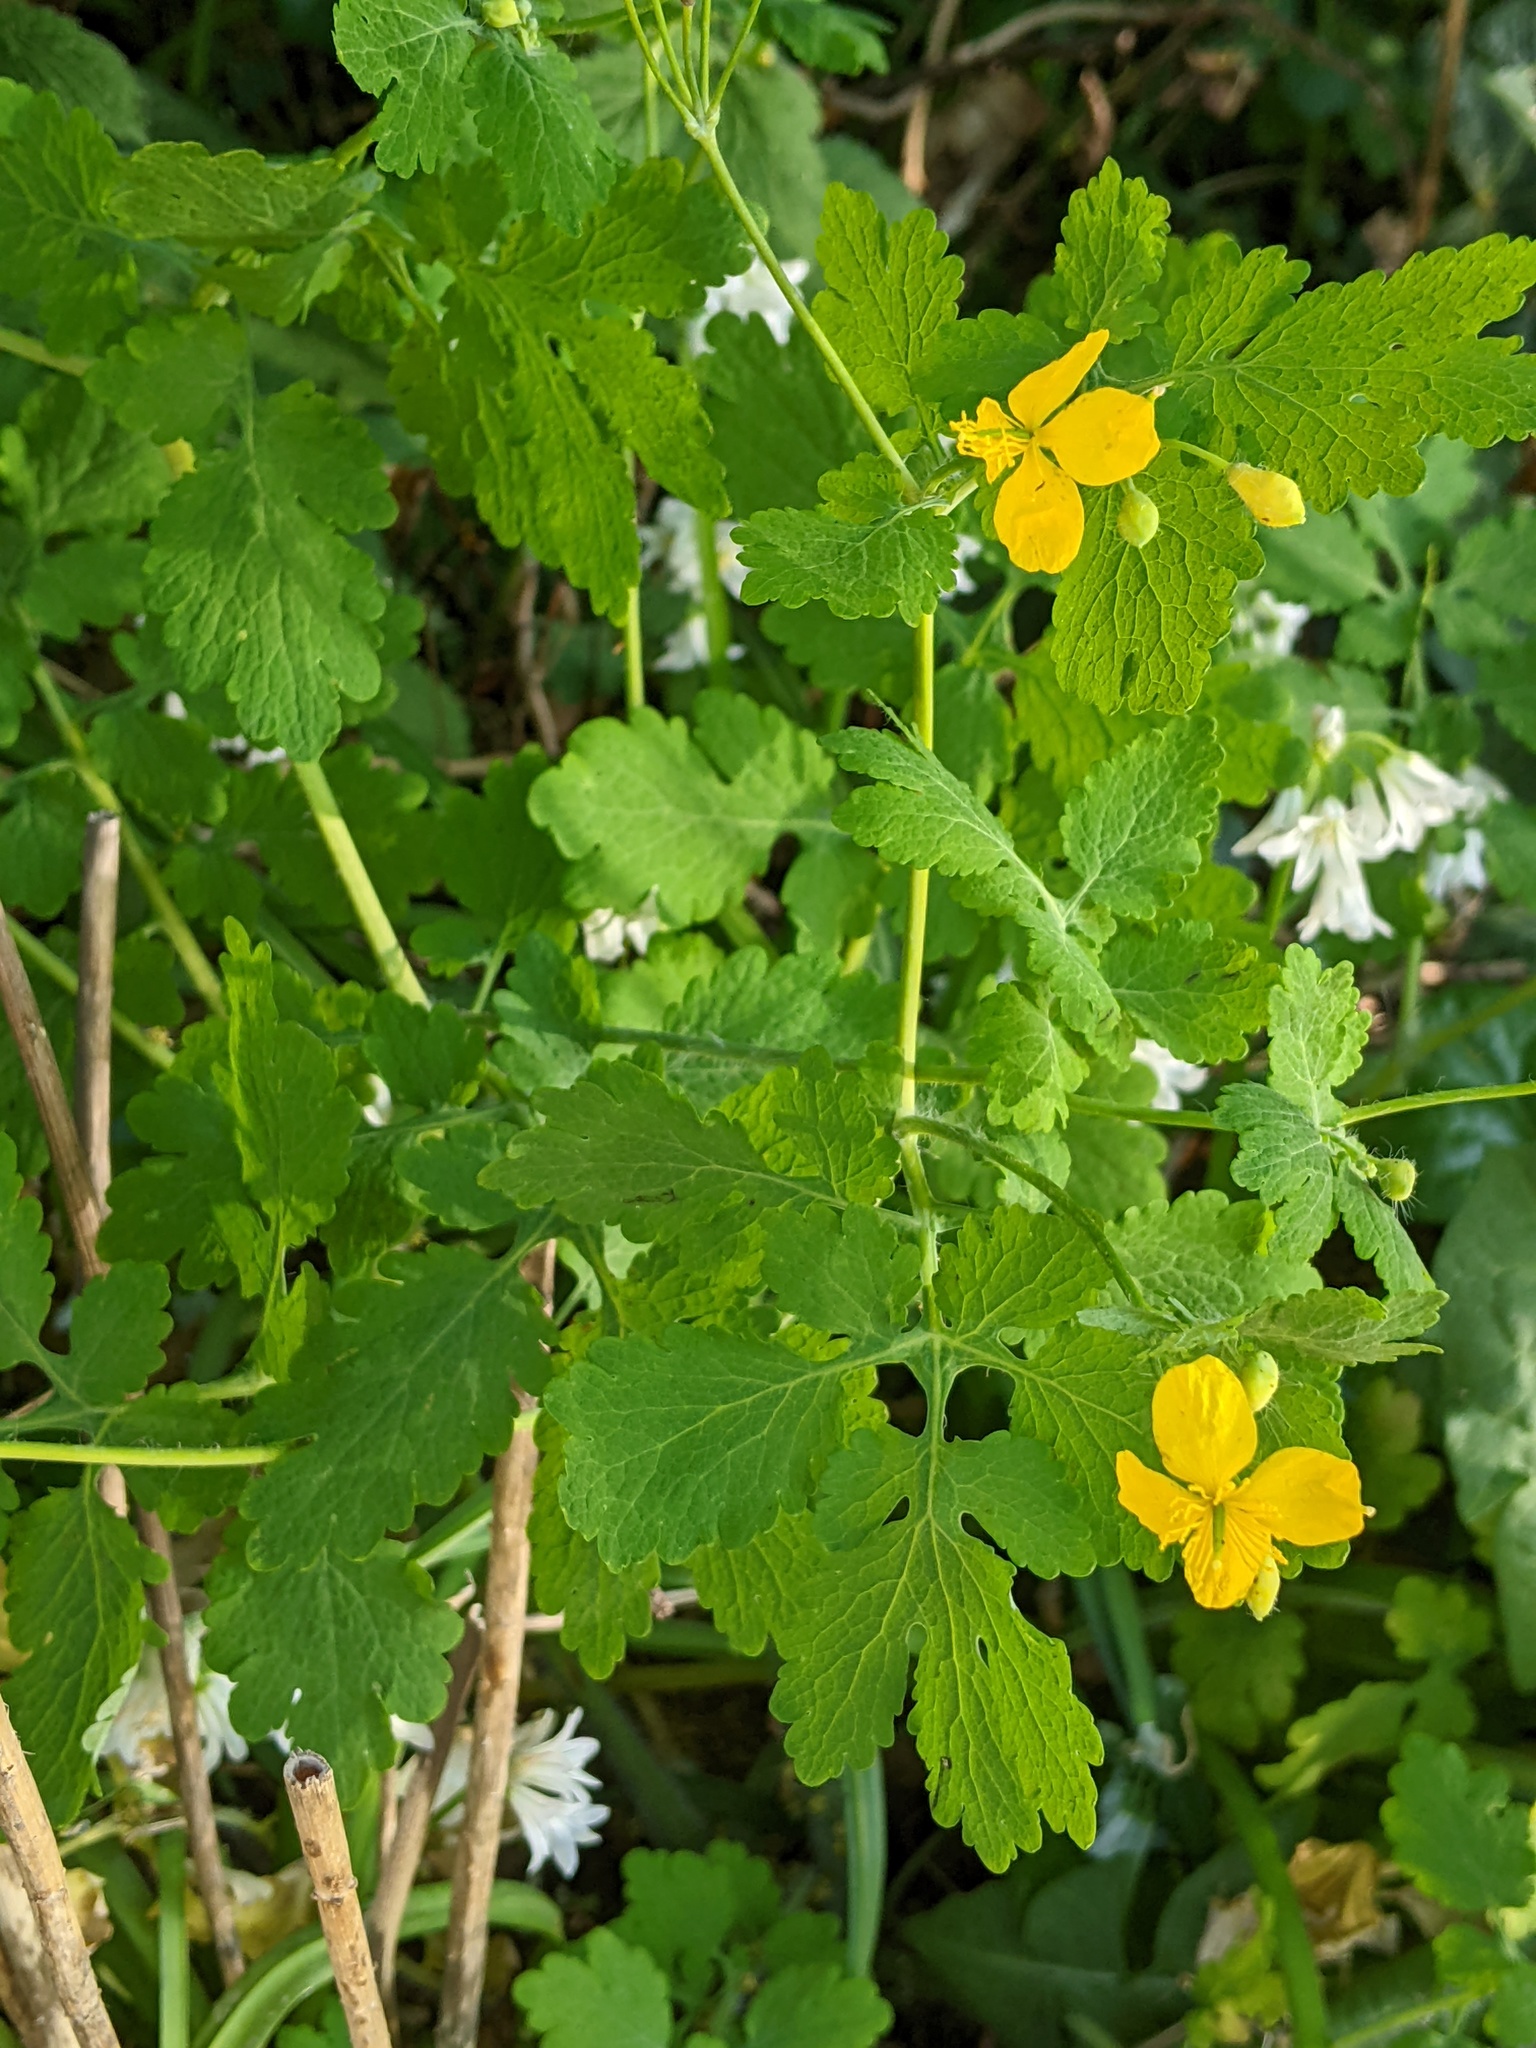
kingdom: Plantae
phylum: Tracheophyta
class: Magnoliopsida
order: Ranunculales
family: Papaveraceae
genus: Chelidonium
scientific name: Chelidonium majus
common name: Greater celandine
